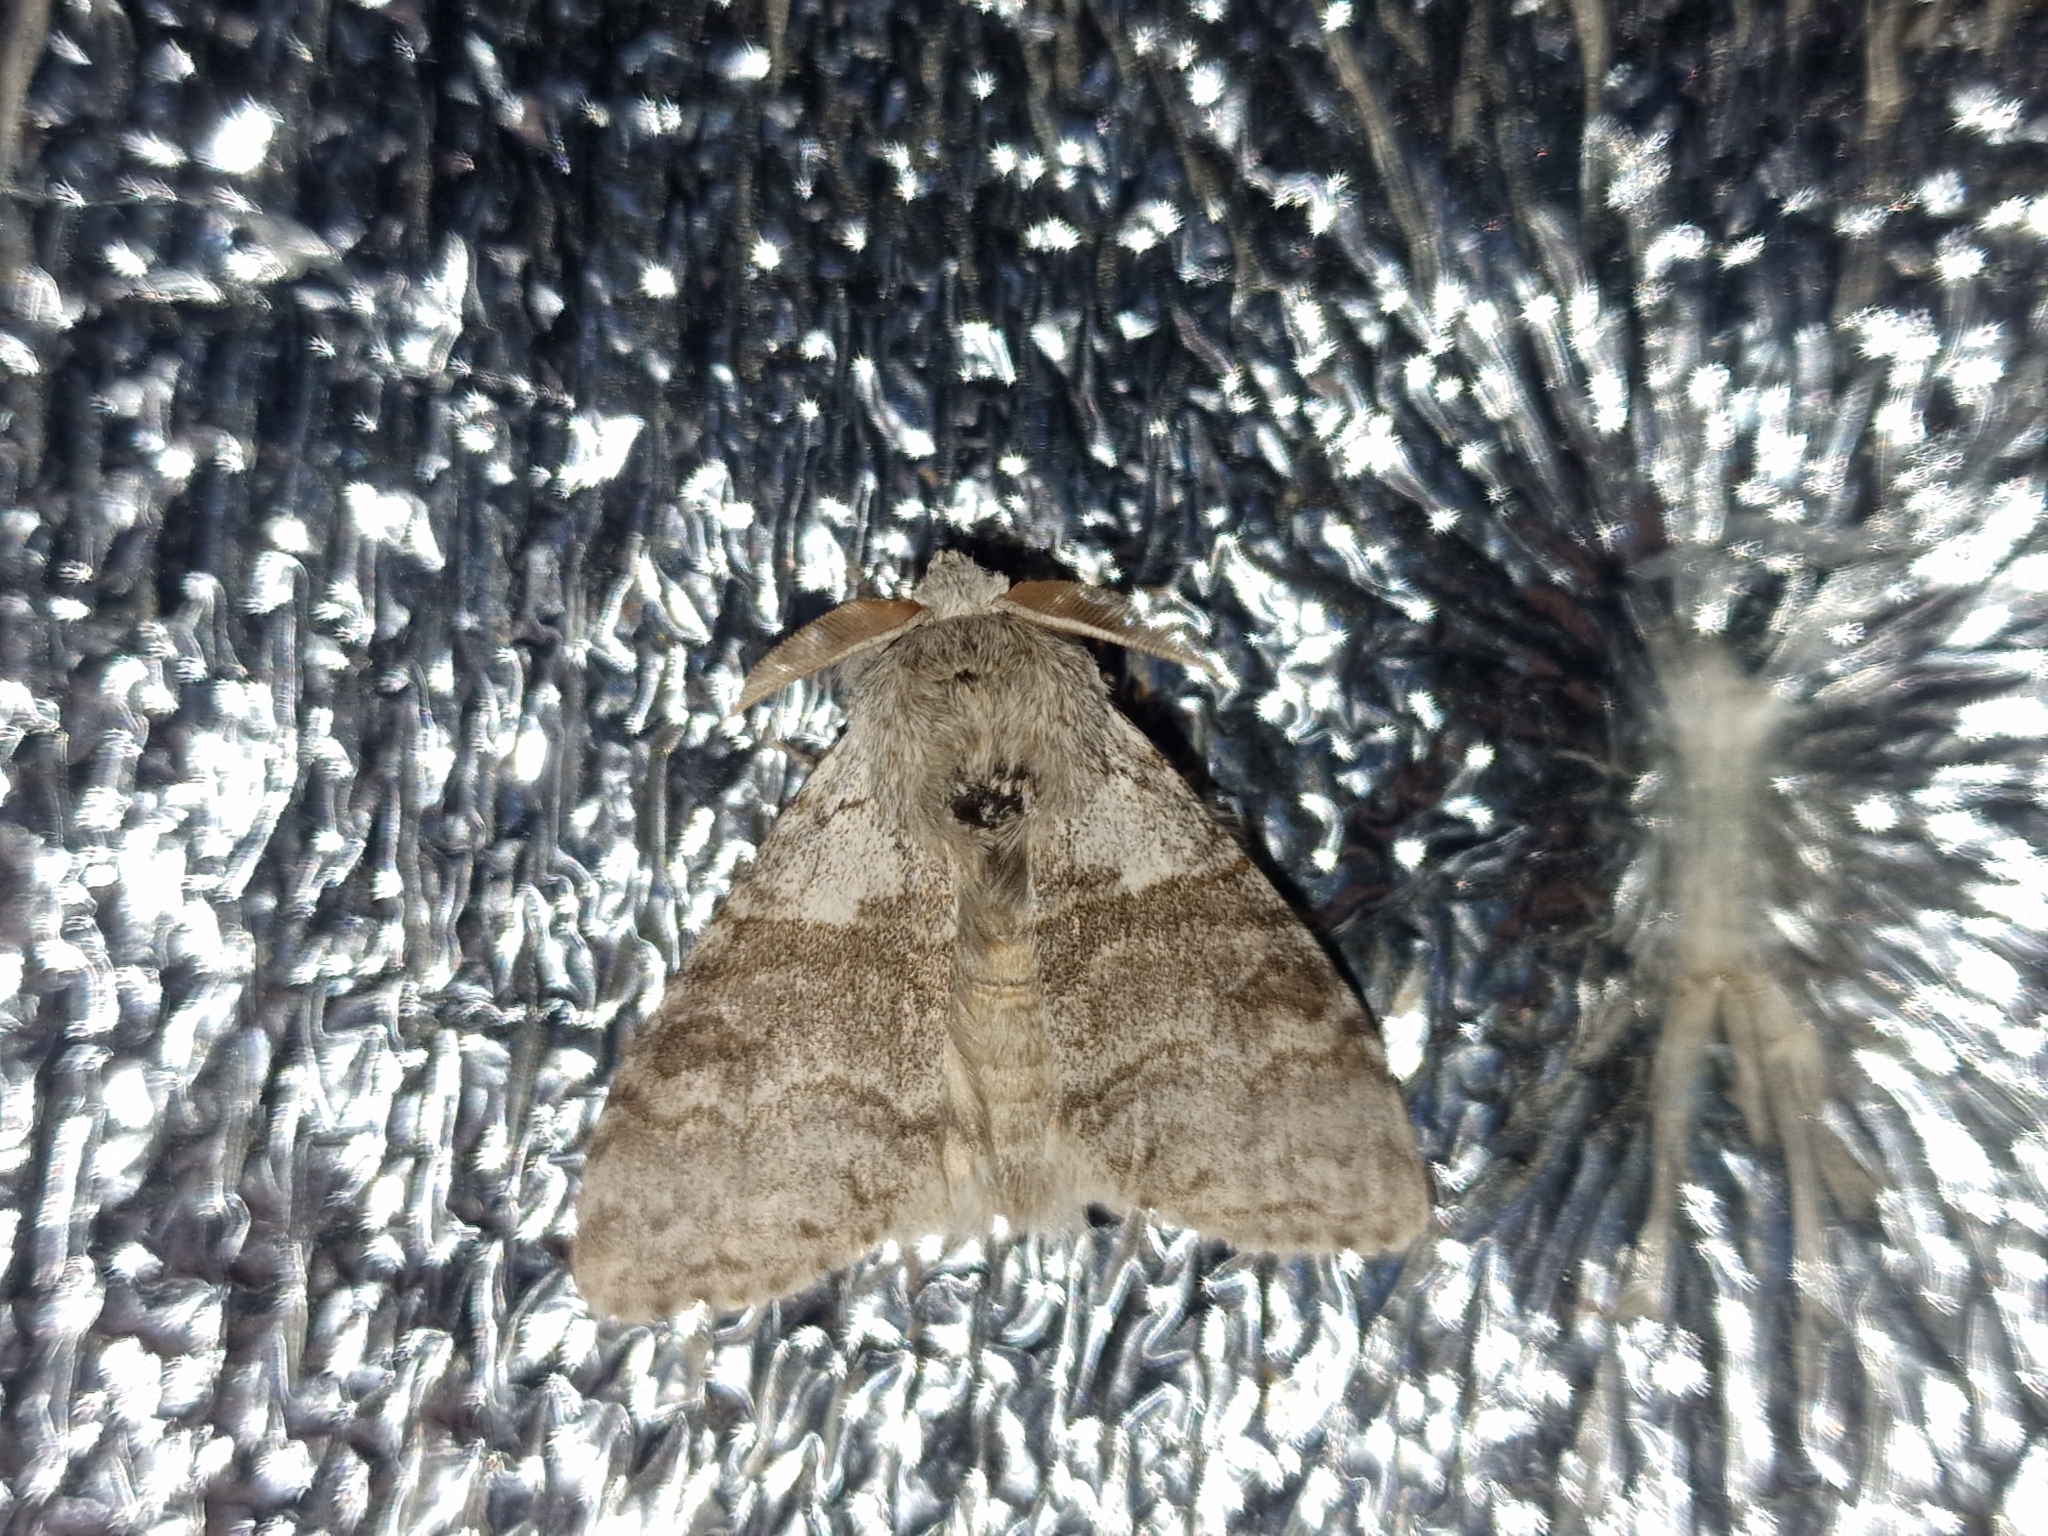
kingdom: Animalia
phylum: Arthropoda
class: Insecta
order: Lepidoptera
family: Erebidae
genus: Calliteara
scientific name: Calliteara pudibunda
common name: Pale tussock
